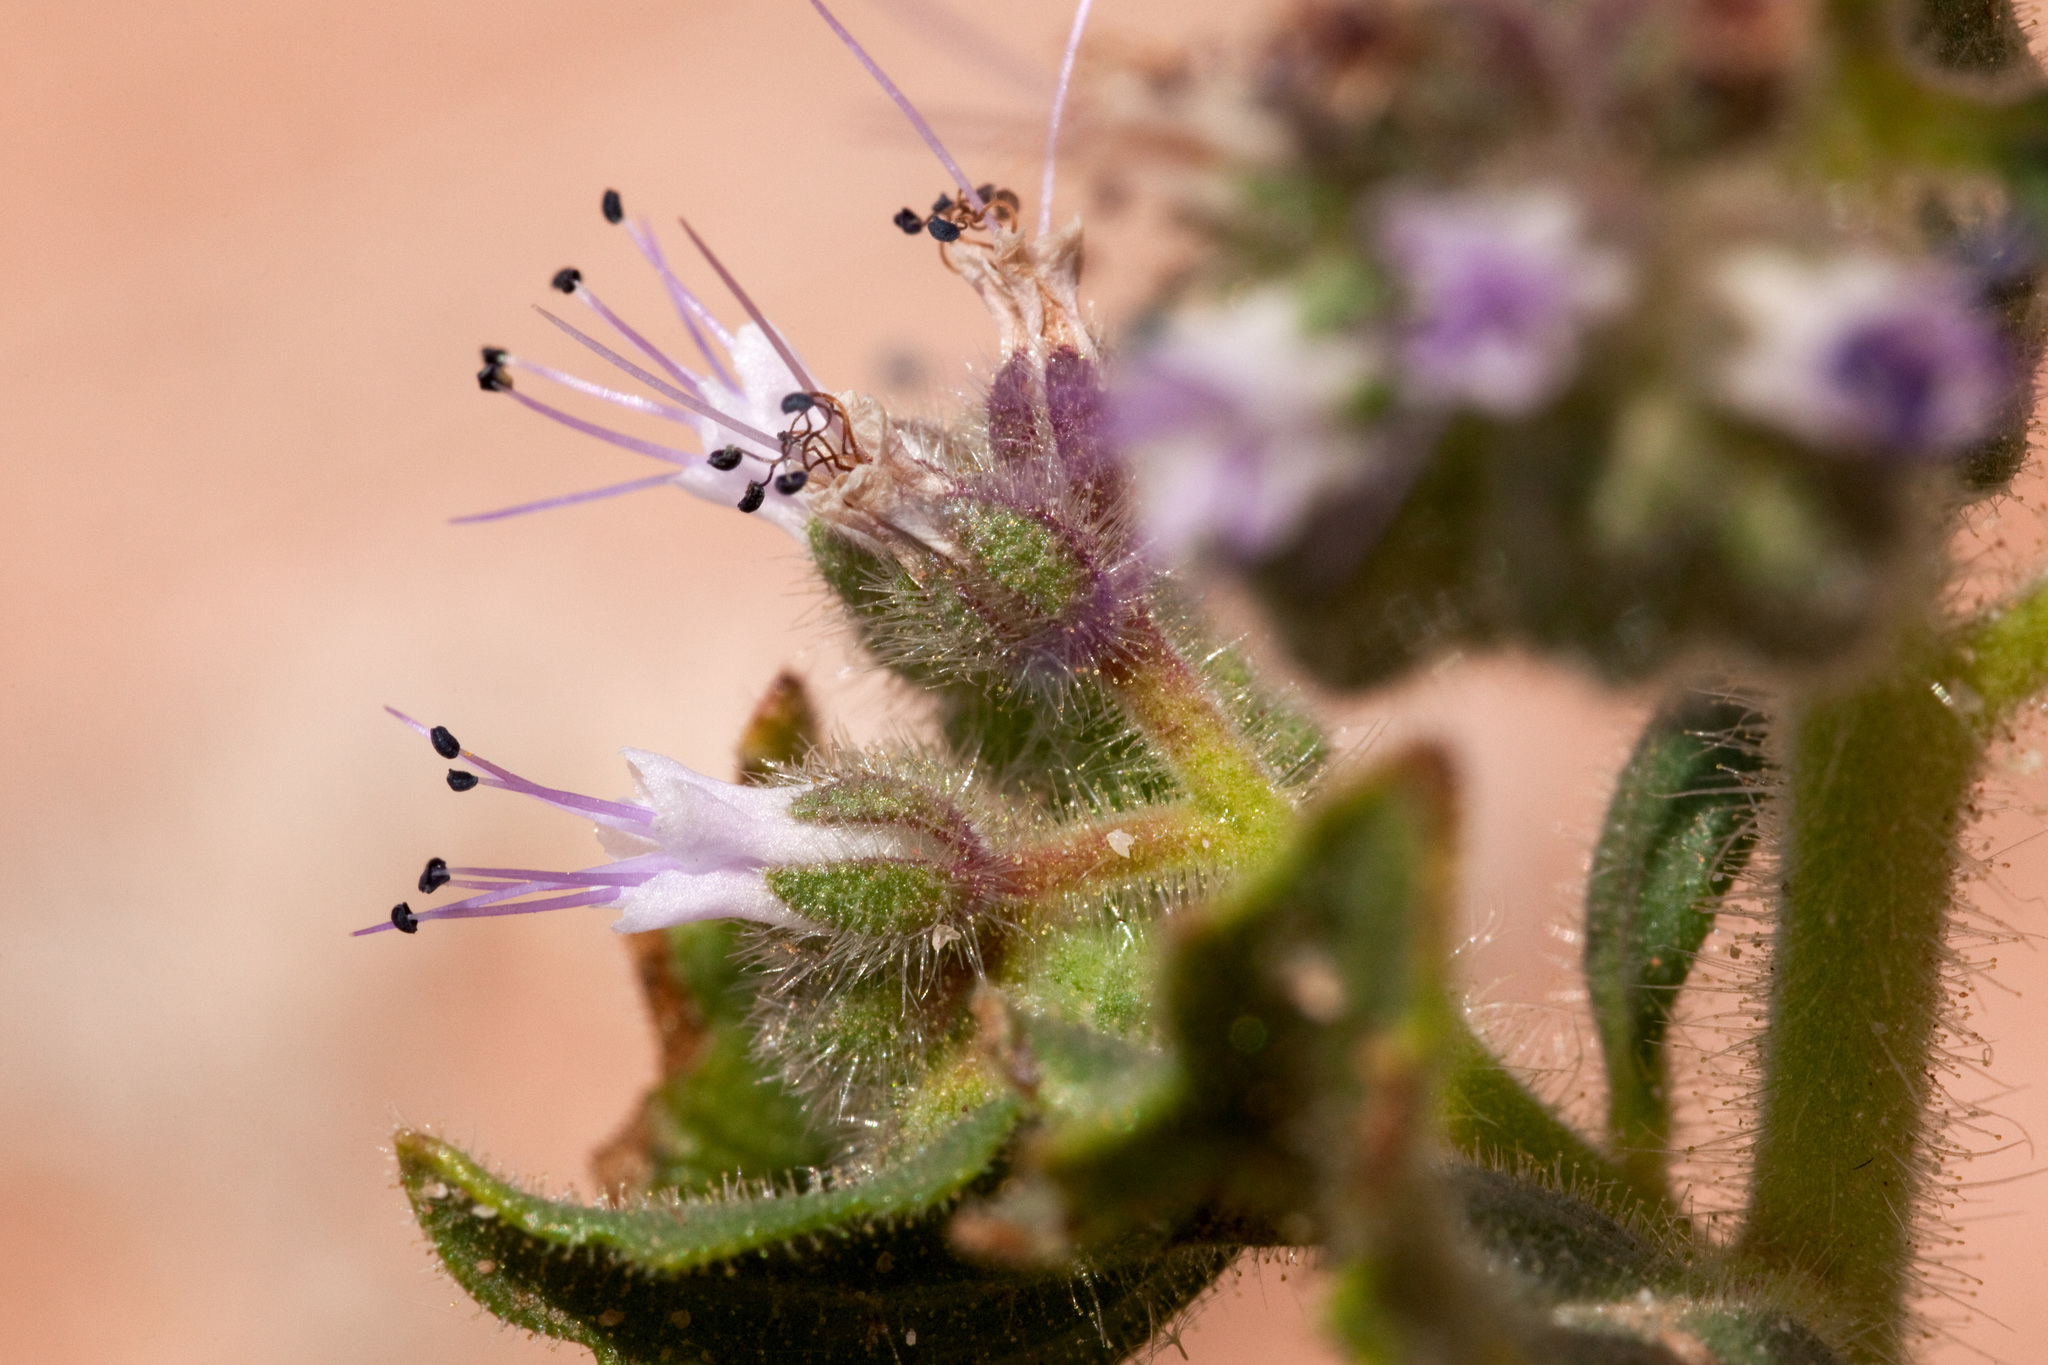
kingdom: Plantae
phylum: Tracheophyta
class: Magnoliopsida
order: Boraginales
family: Hydrophyllaceae
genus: Phacelia
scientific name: Phacelia sivinskii
